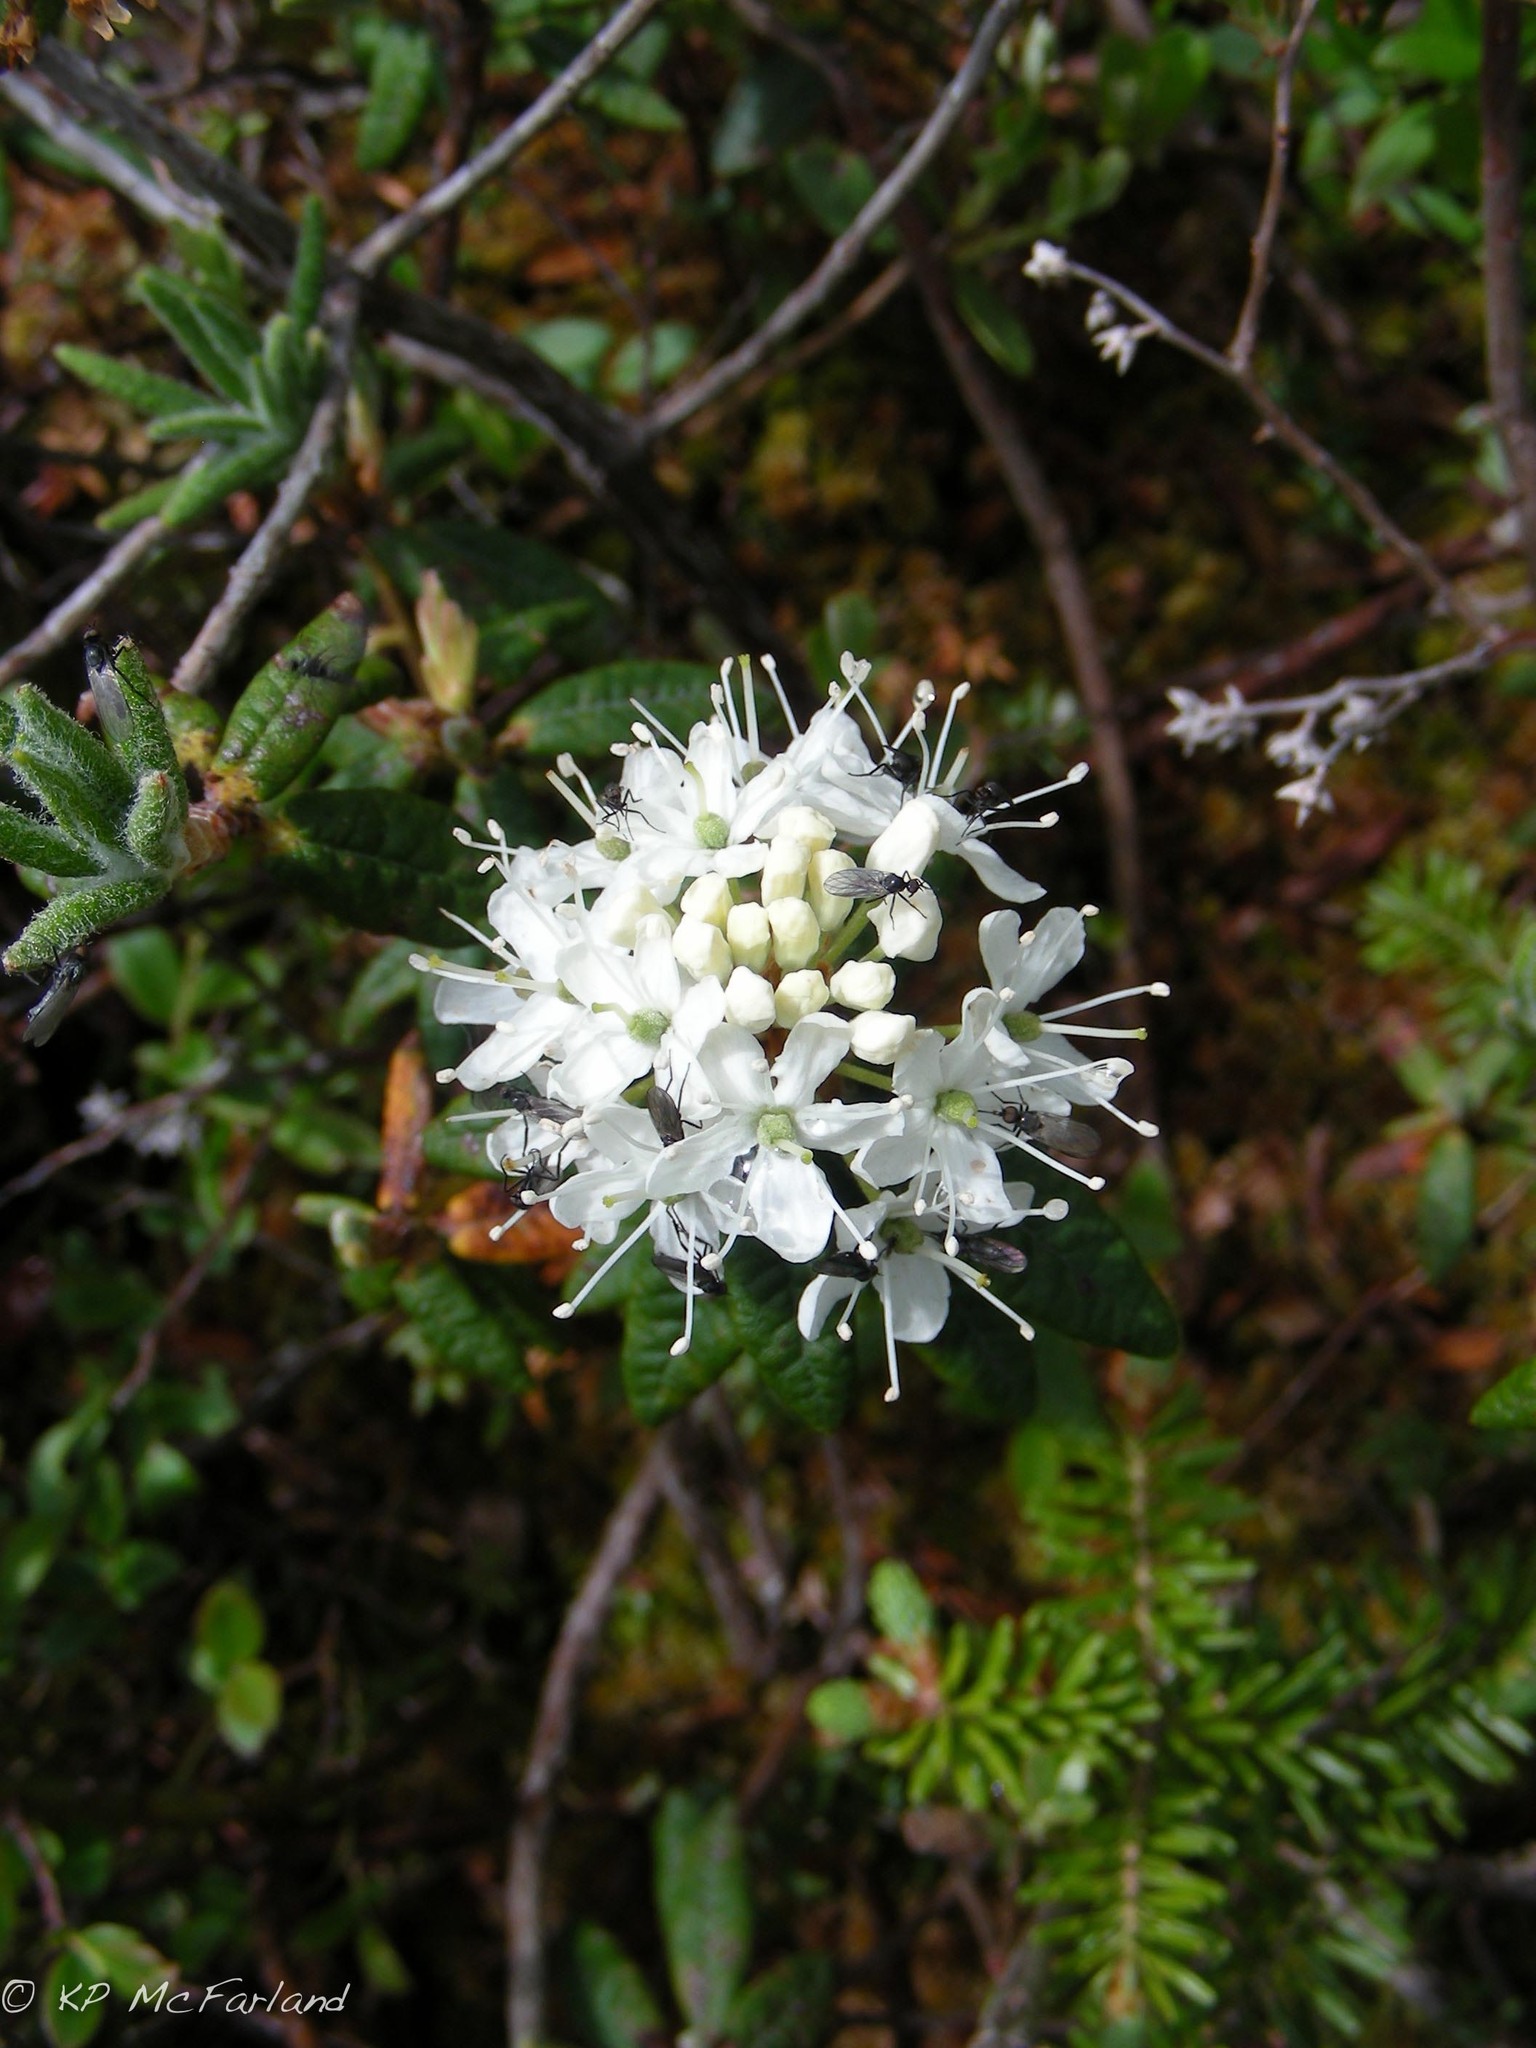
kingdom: Plantae
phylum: Tracheophyta
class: Magnoliopsida
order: Ericales
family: Ericaceae
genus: Rhododendron
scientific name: Rhododendron groenlandicum
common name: Bog labrador tea
